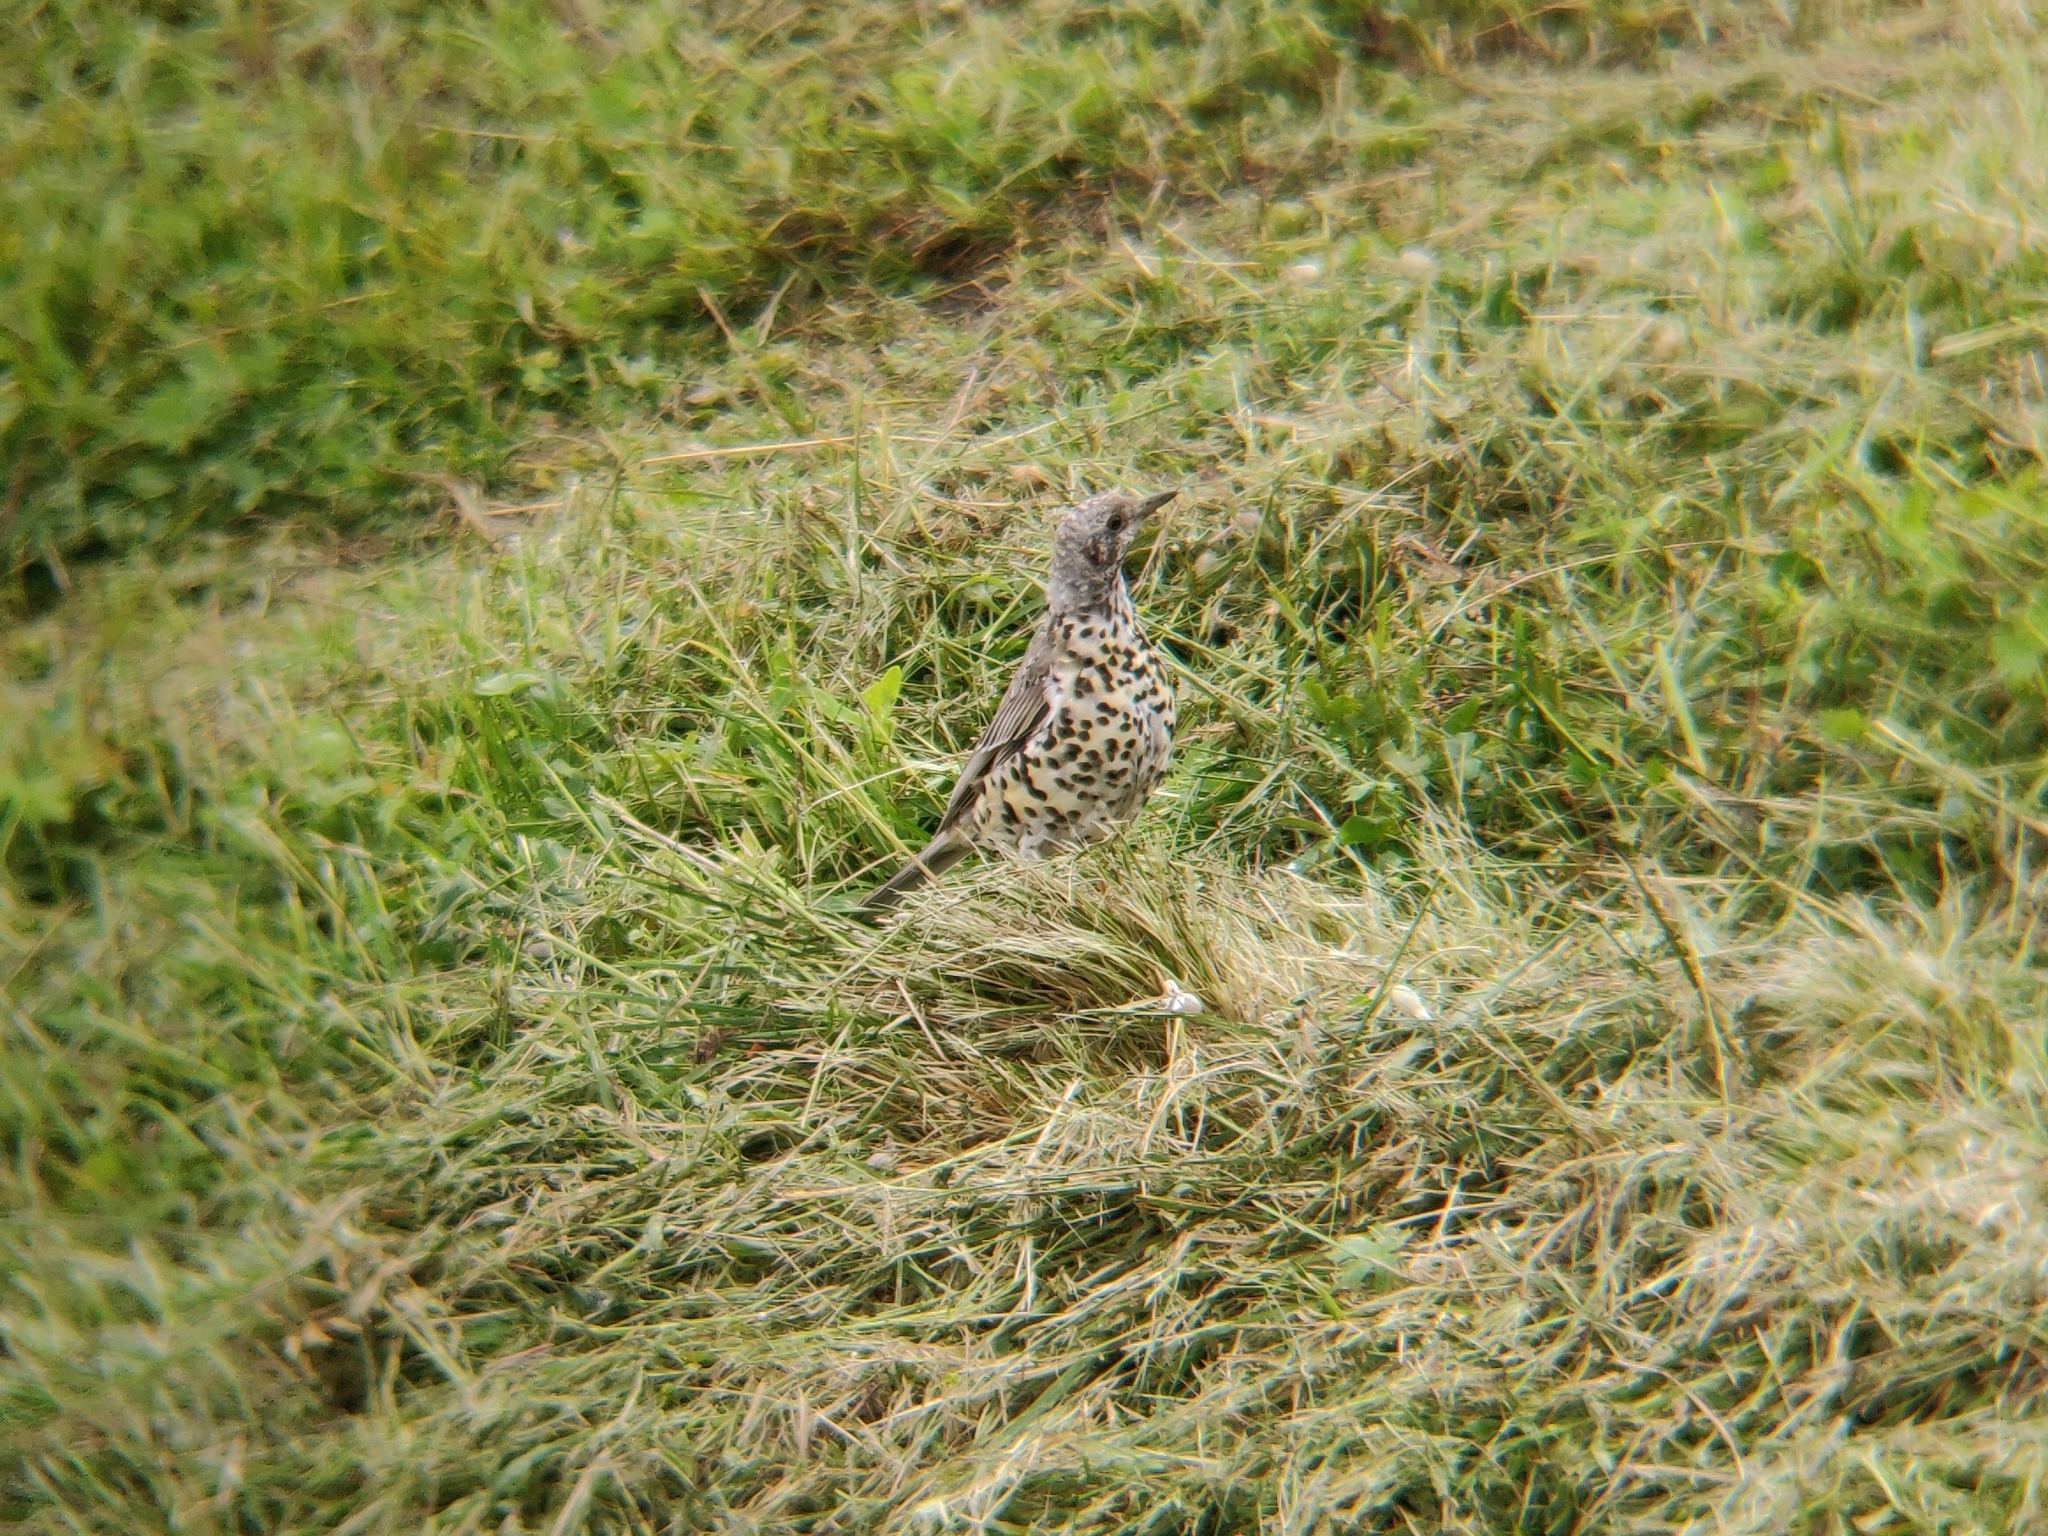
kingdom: Animalia
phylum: Chordata
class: Aves
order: Passeriformes
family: Turdidae
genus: Turdus
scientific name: Turdus viscivorus
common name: Mistle thrush
